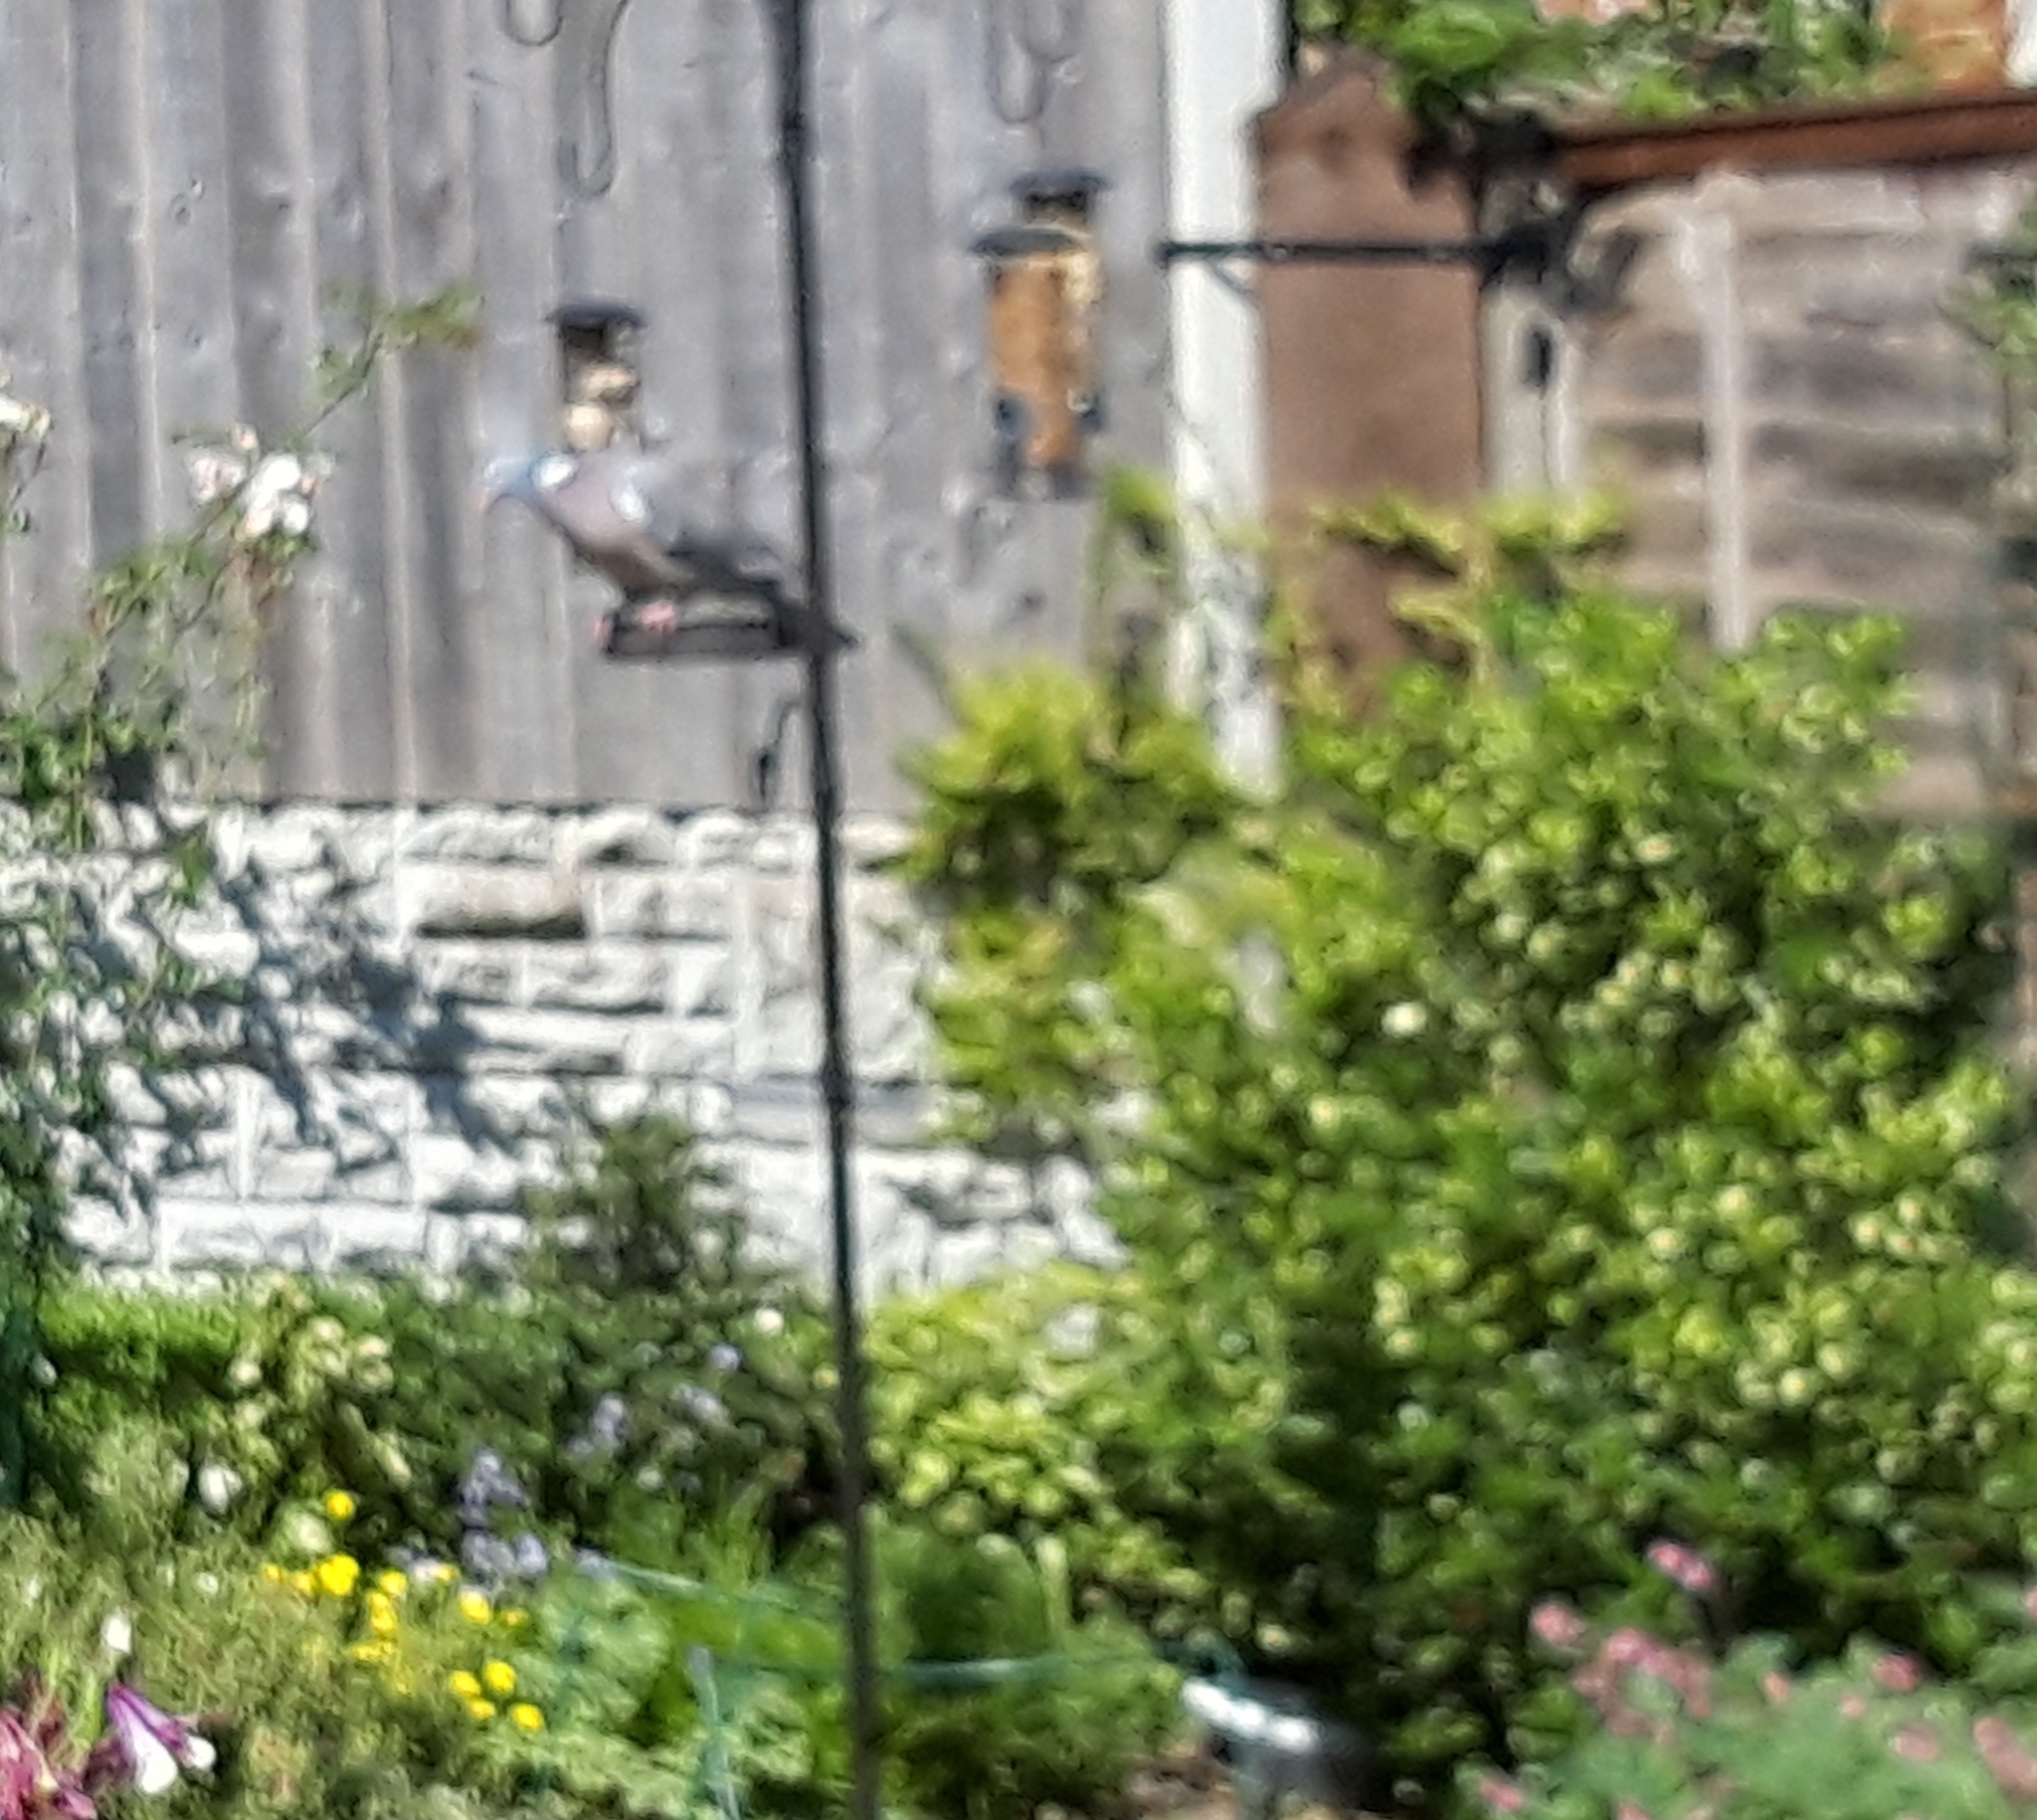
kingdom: Animalia
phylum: Chordata
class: Aves
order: Columbiformes
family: Columbidae
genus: Columba
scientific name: Columba palumbus
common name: Common wood pigeon
